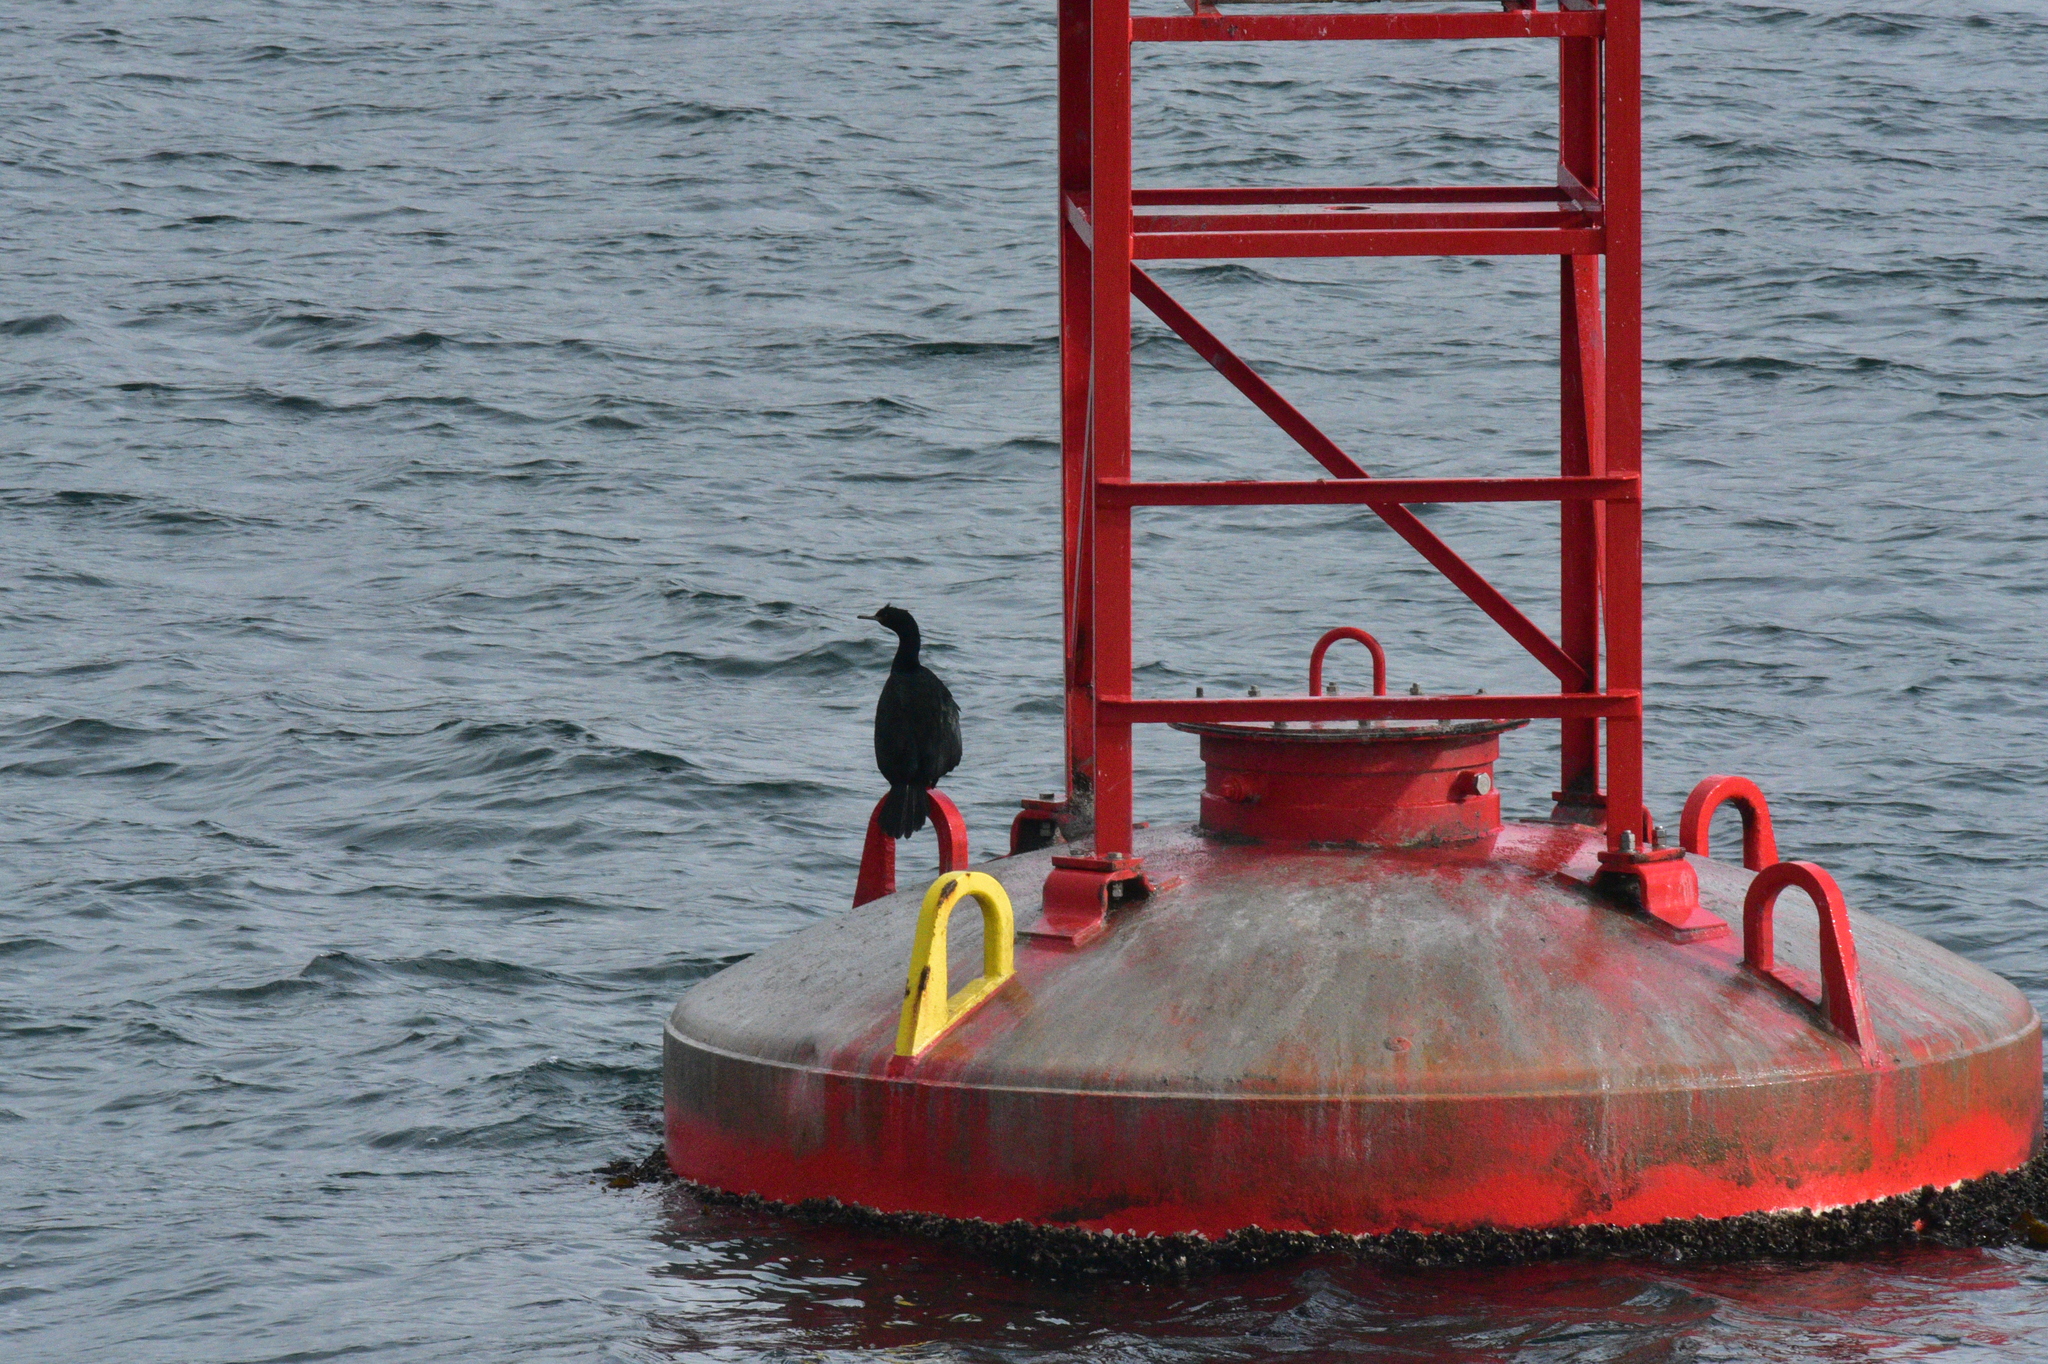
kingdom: Animalia
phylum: Chordata
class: Aves
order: Suliformes
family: Phalacrocoracidae
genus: Phalacrocorax
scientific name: Phalacrocorax pelagicus
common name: Pelagic cormorant
